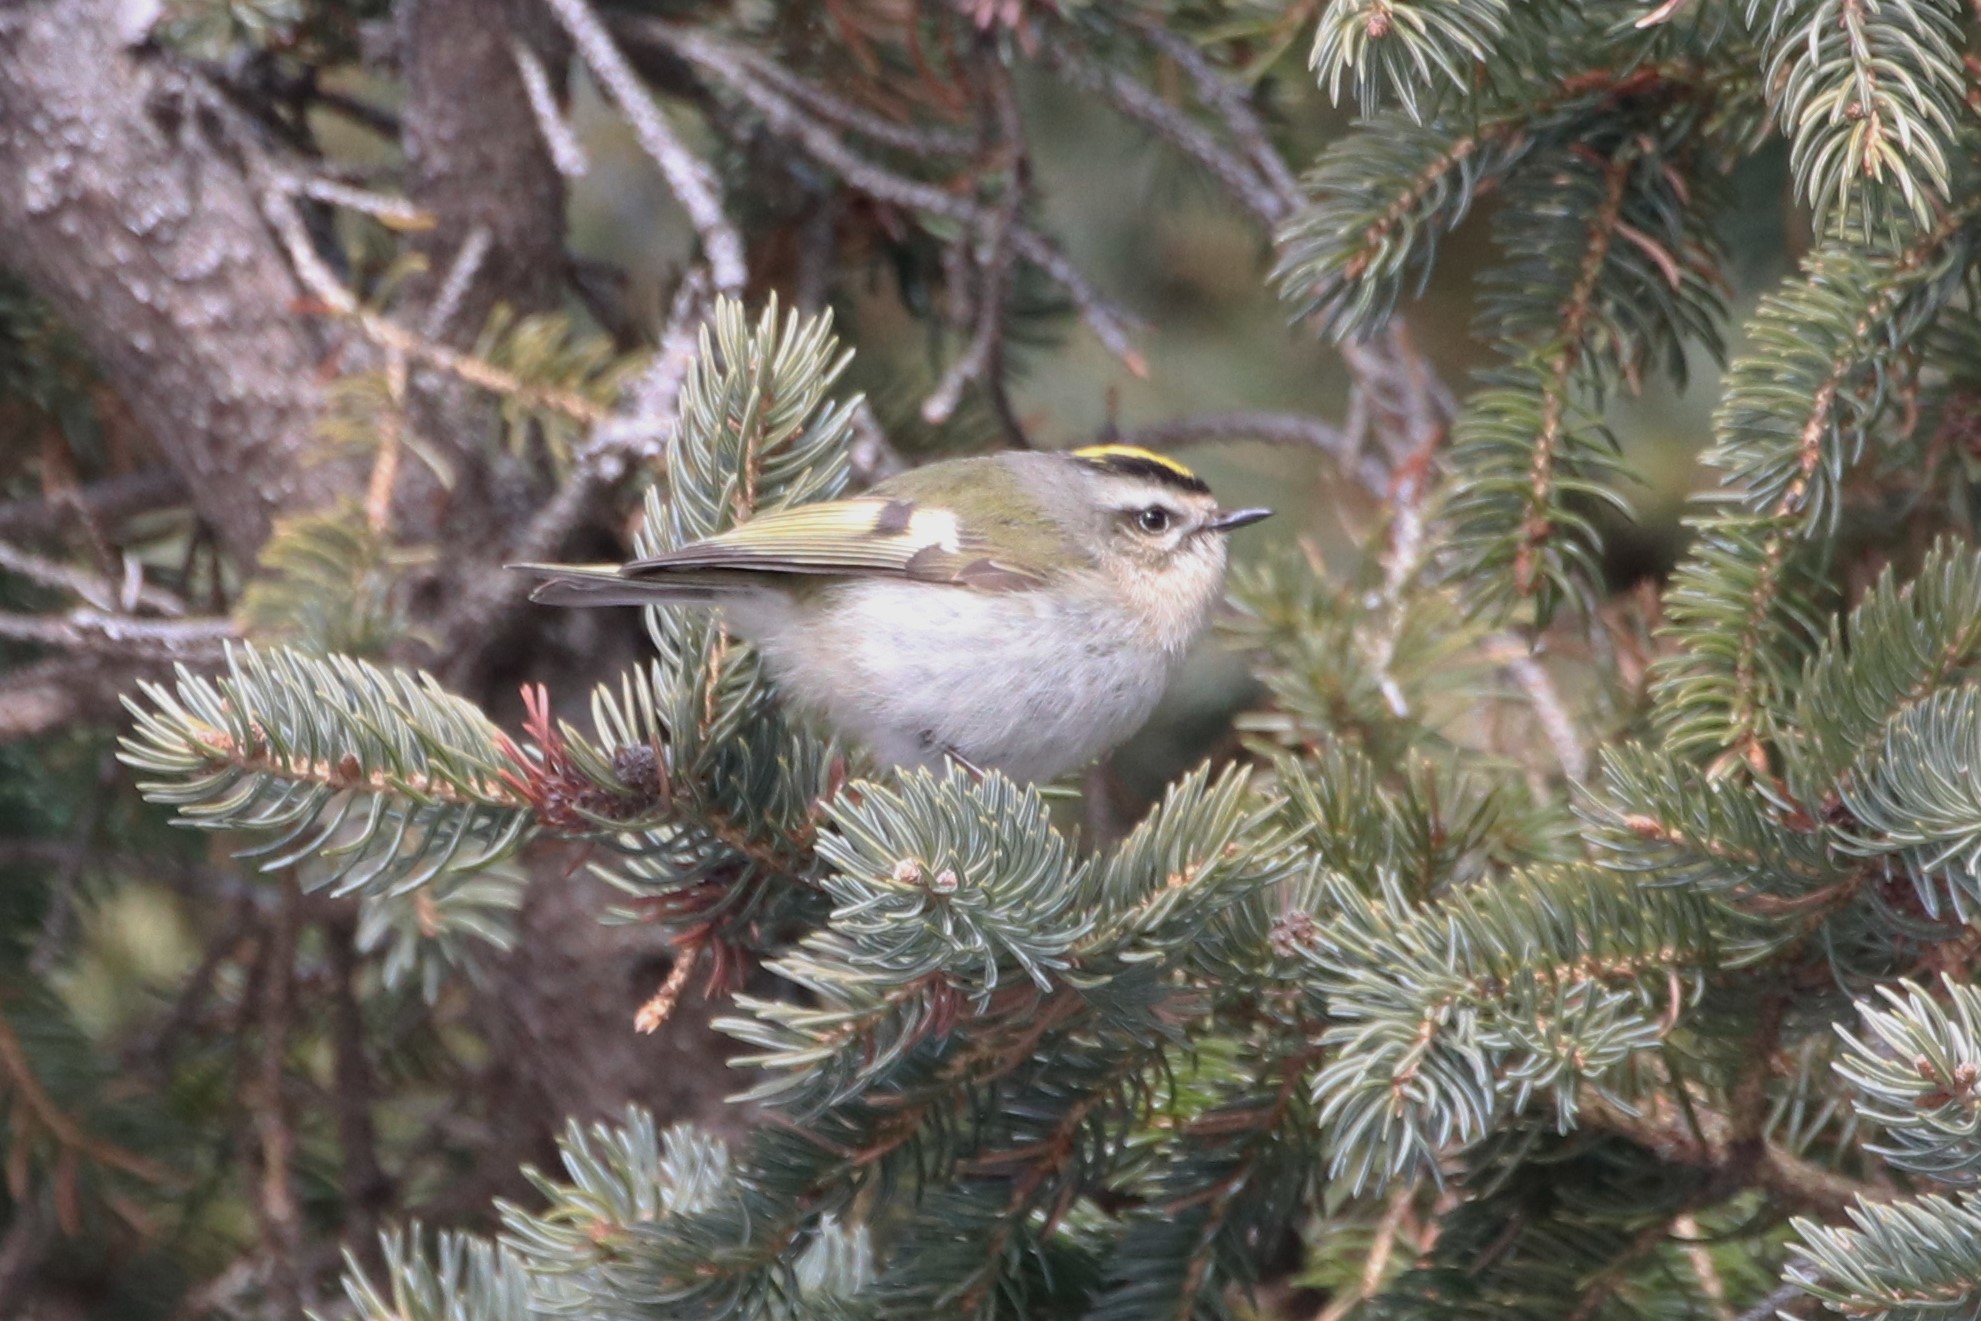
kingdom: Animalia
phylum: Chordata
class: Aves
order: Passeriformes
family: Regulidae
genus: Regulus
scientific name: Regulus satrapa
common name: Golden-crowned kinglet
